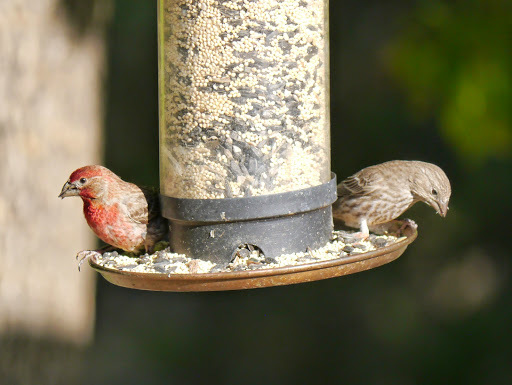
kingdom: Animalia
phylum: Chordata
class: Aves
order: Passeriformes
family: Fringillidae
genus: Haemorhous
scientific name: Haemorhous mexicanus
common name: House finch
